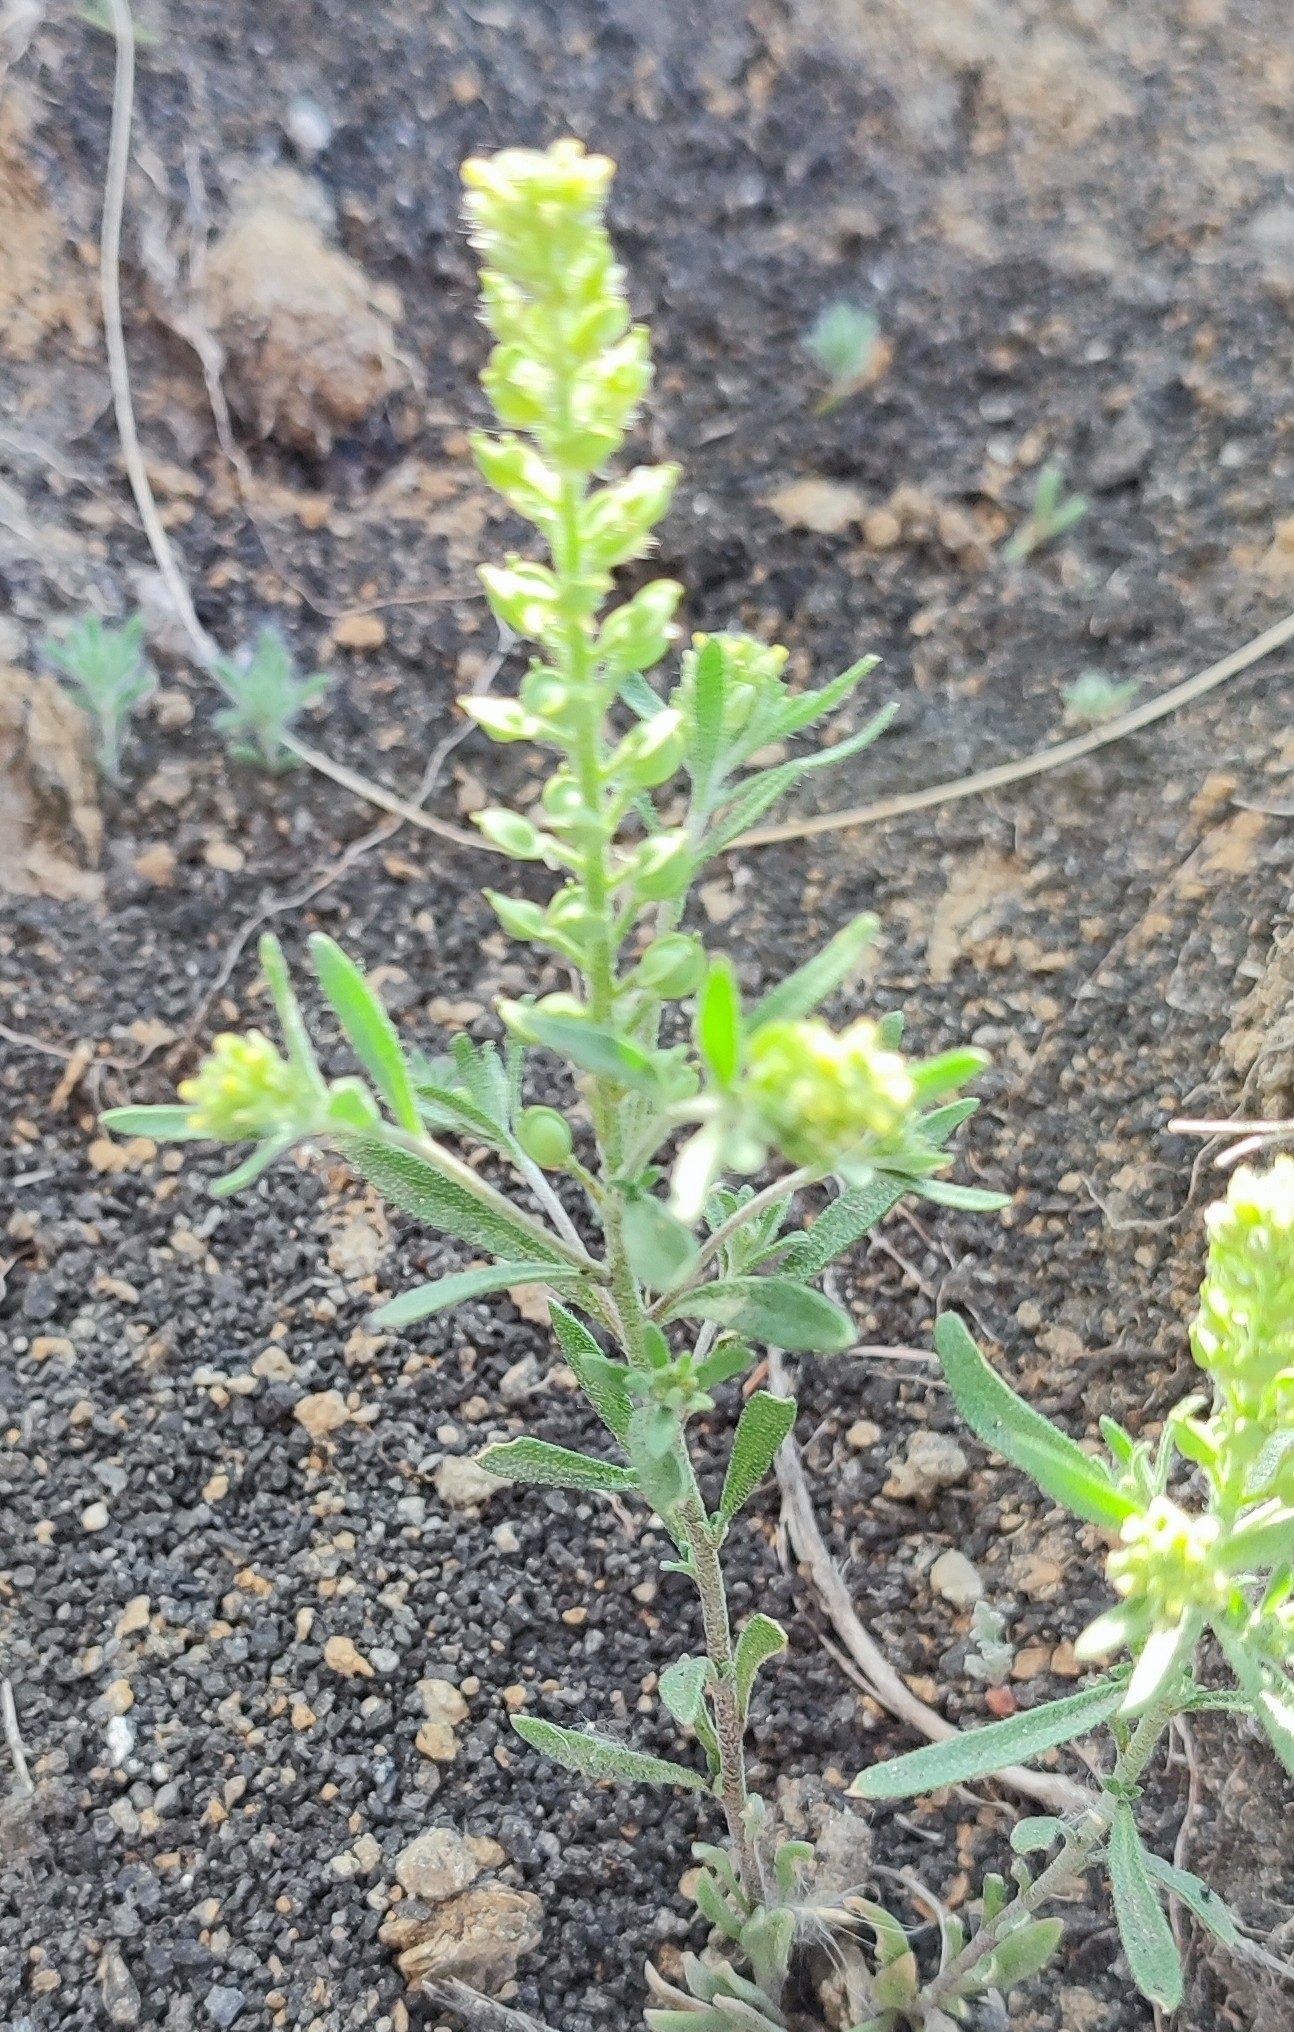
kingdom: Plantae
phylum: Tracheophyta
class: Magnoliopsida
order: Brassicales
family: Brassicaceae
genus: Alyssum
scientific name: Alyssum turkestanicum
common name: Desert alyssum
